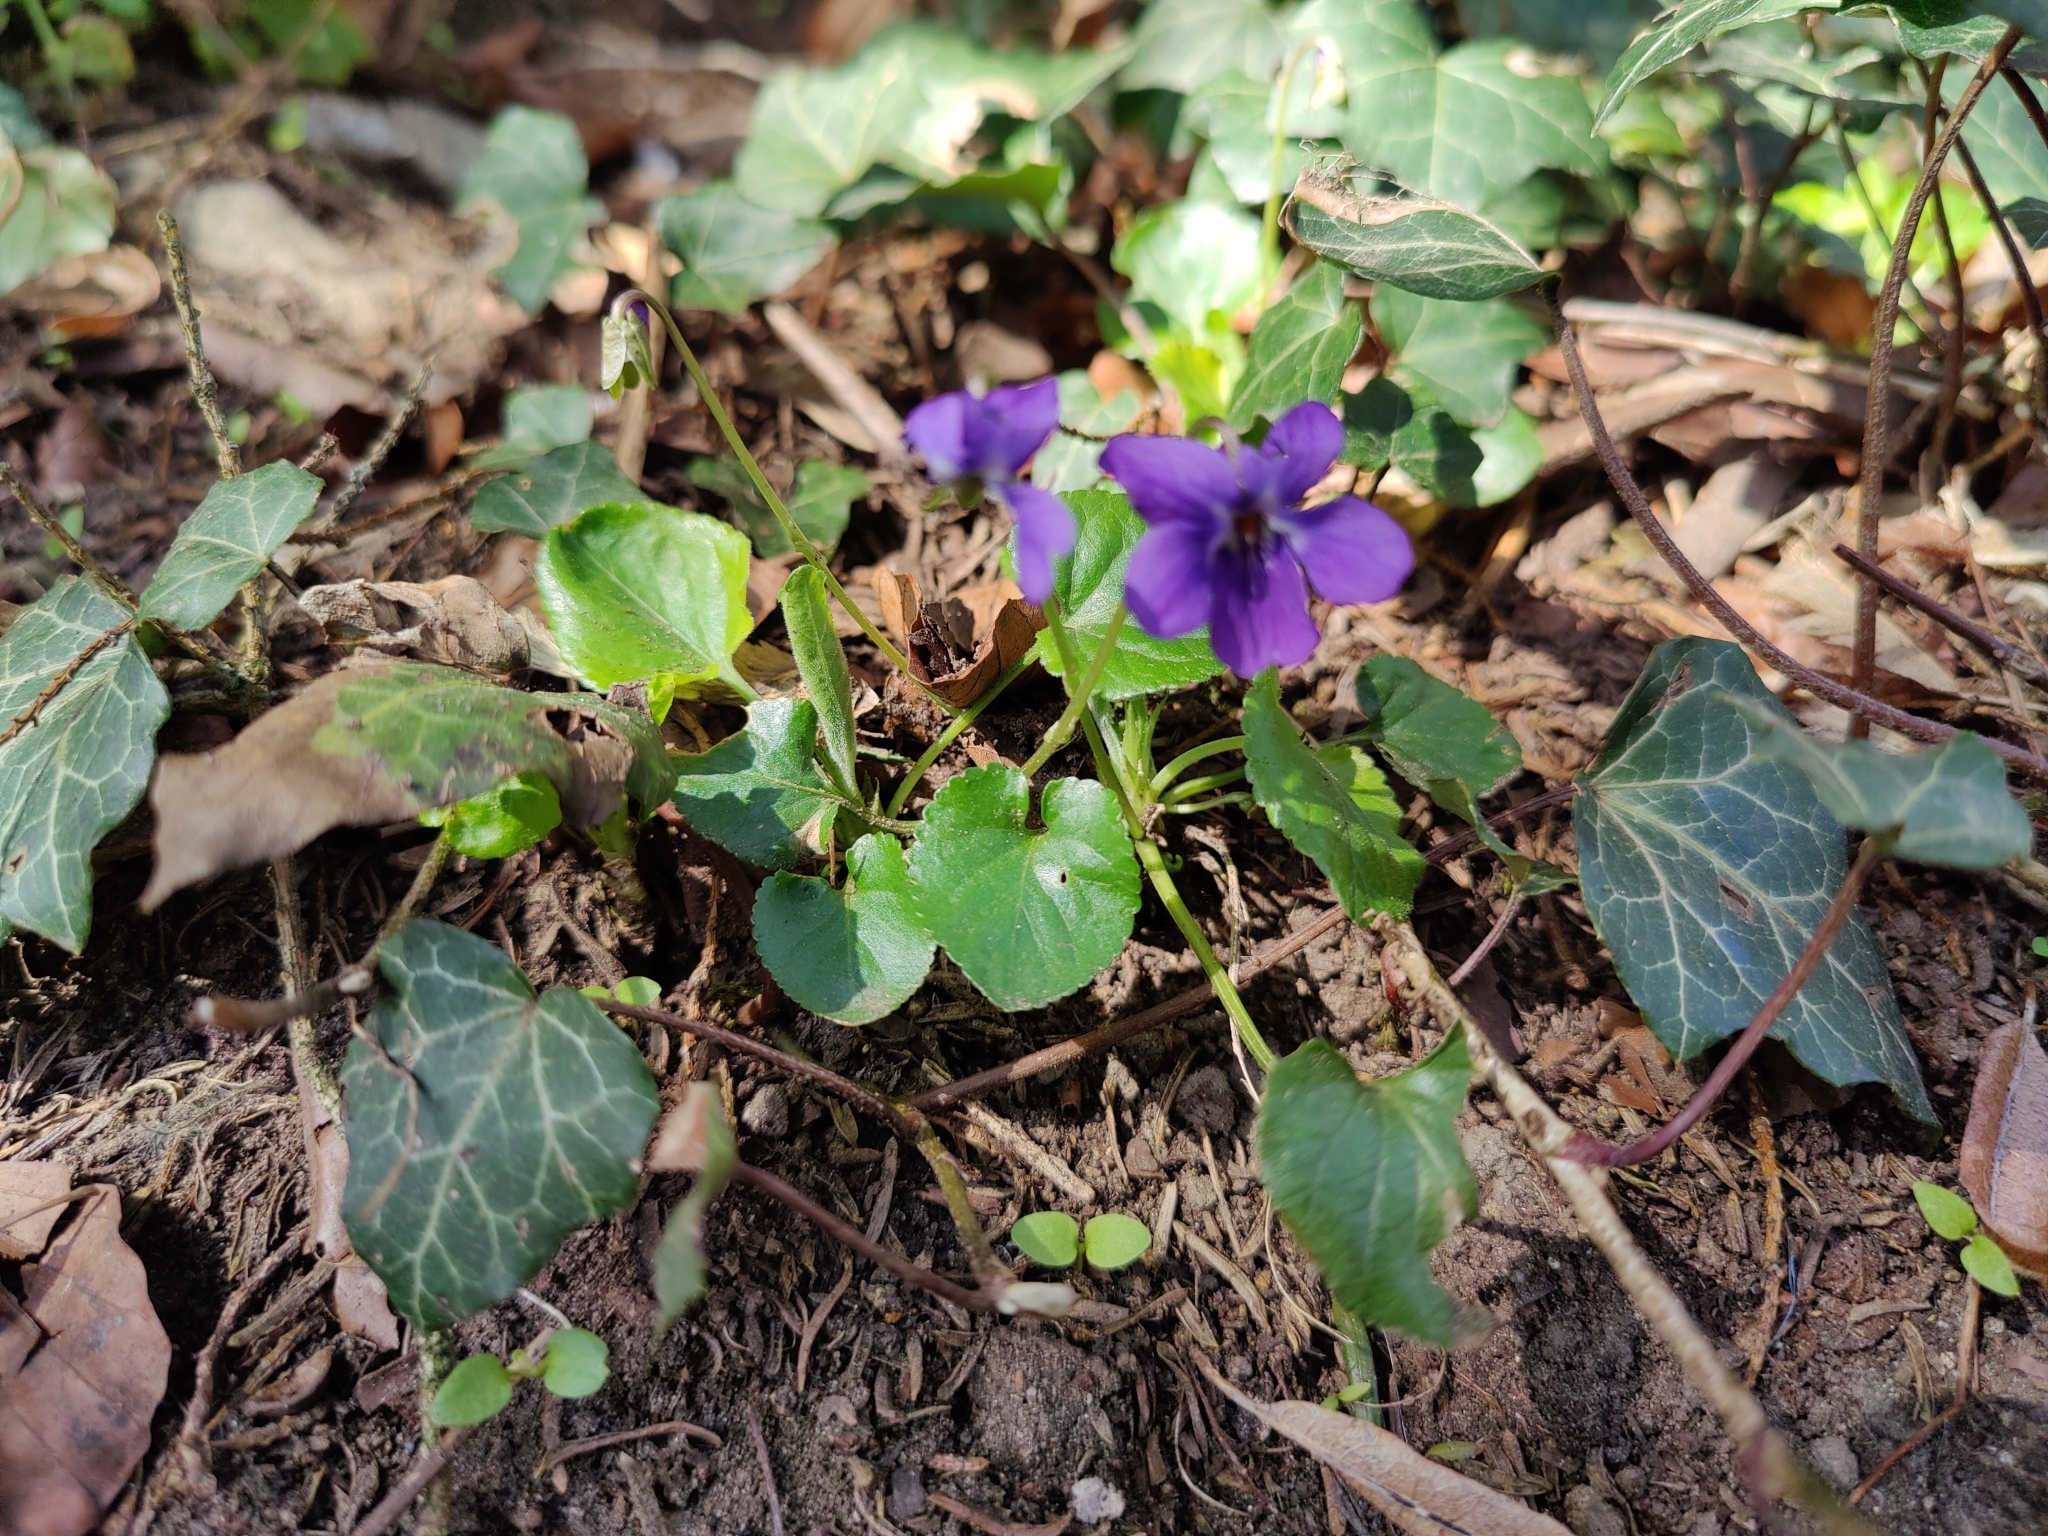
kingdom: Plantae
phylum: Tracheophyta
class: Magnoliopsida
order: Malpighiales
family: Violaceae
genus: Viola
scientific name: Viola odorata
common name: Sweet violet
